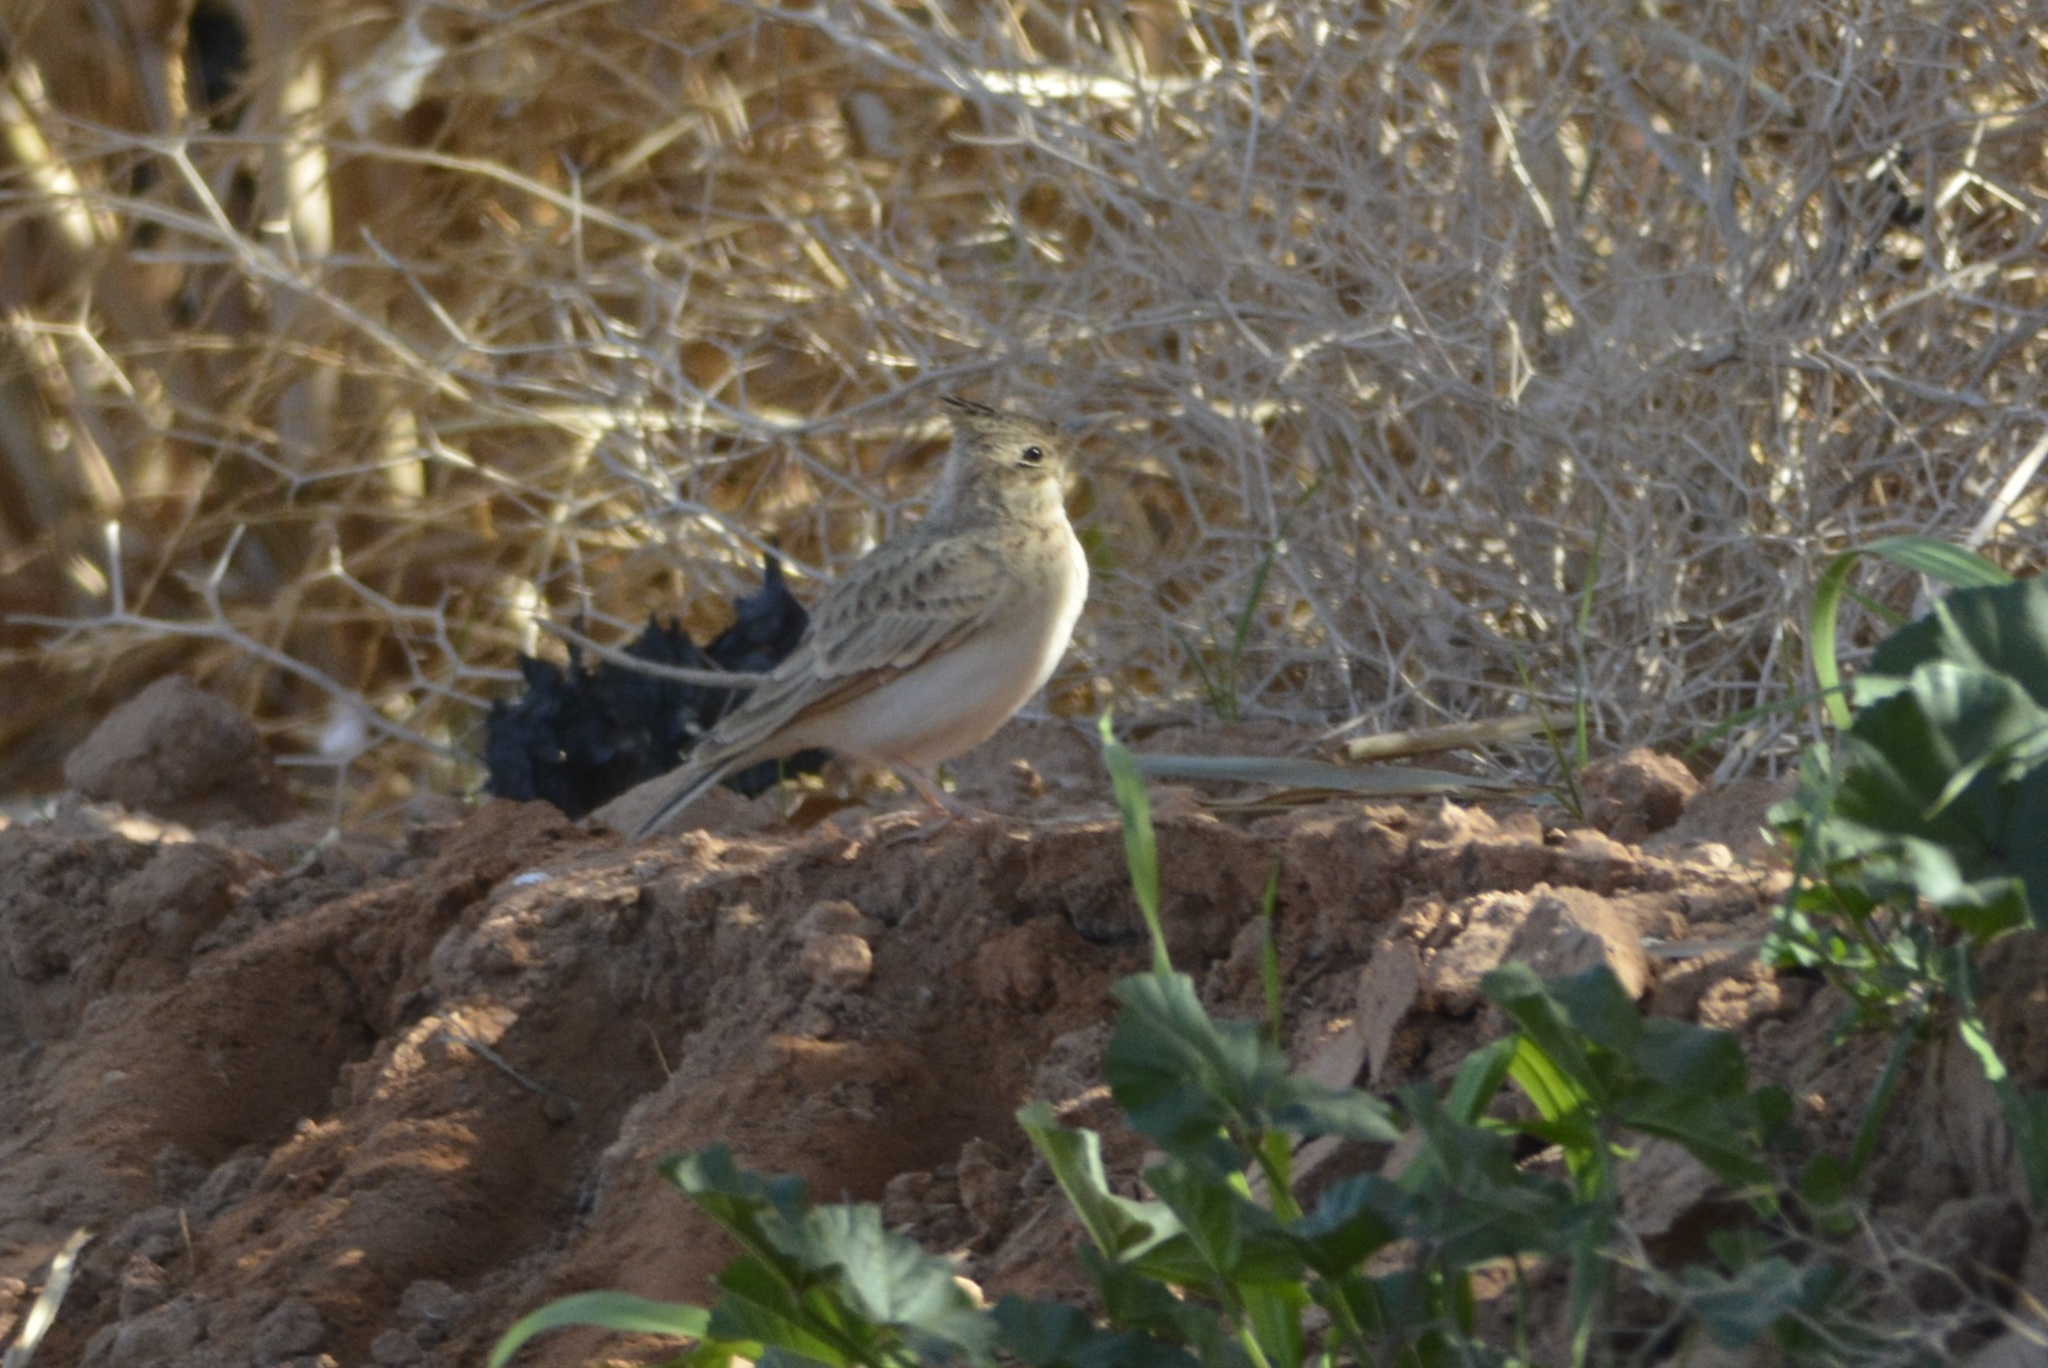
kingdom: Animalia
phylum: Chordata
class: Aves
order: Passeriformes
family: Alaudidae
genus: Galerida
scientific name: Galerida cristata
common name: Crested lark
